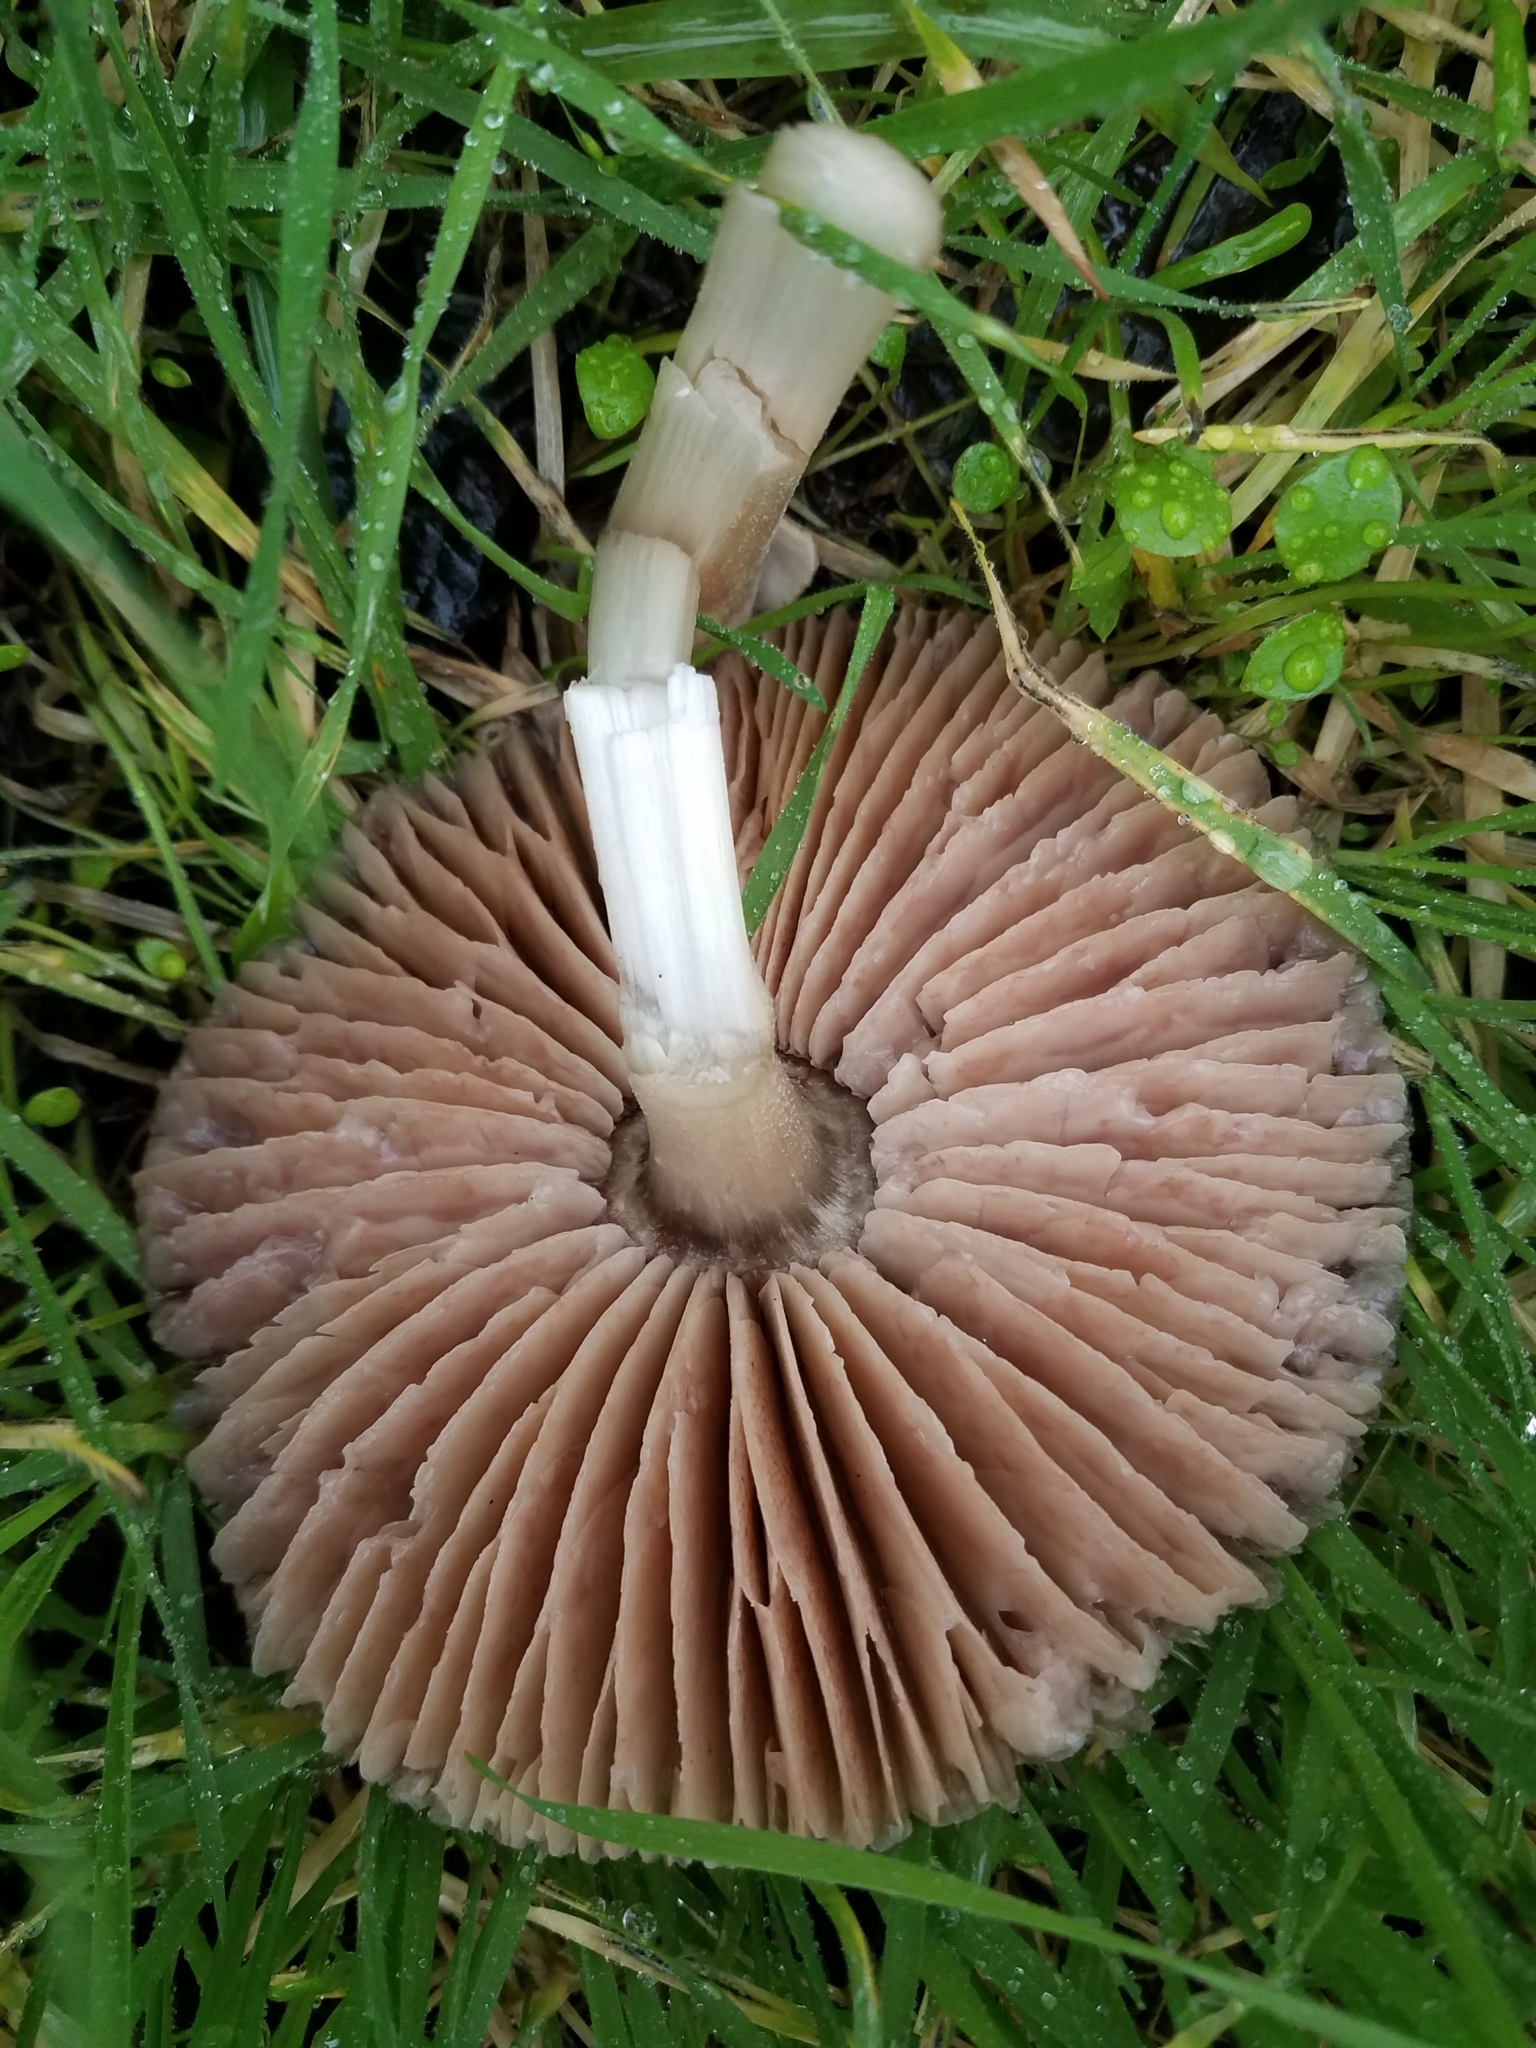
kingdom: Fungi
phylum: Basidiomycota
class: Agaricomycetes
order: Agaricales
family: Pluteaceae
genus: Volvopluteus
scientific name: Volvopluteus gloiocephalus
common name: Stubble rosegill
